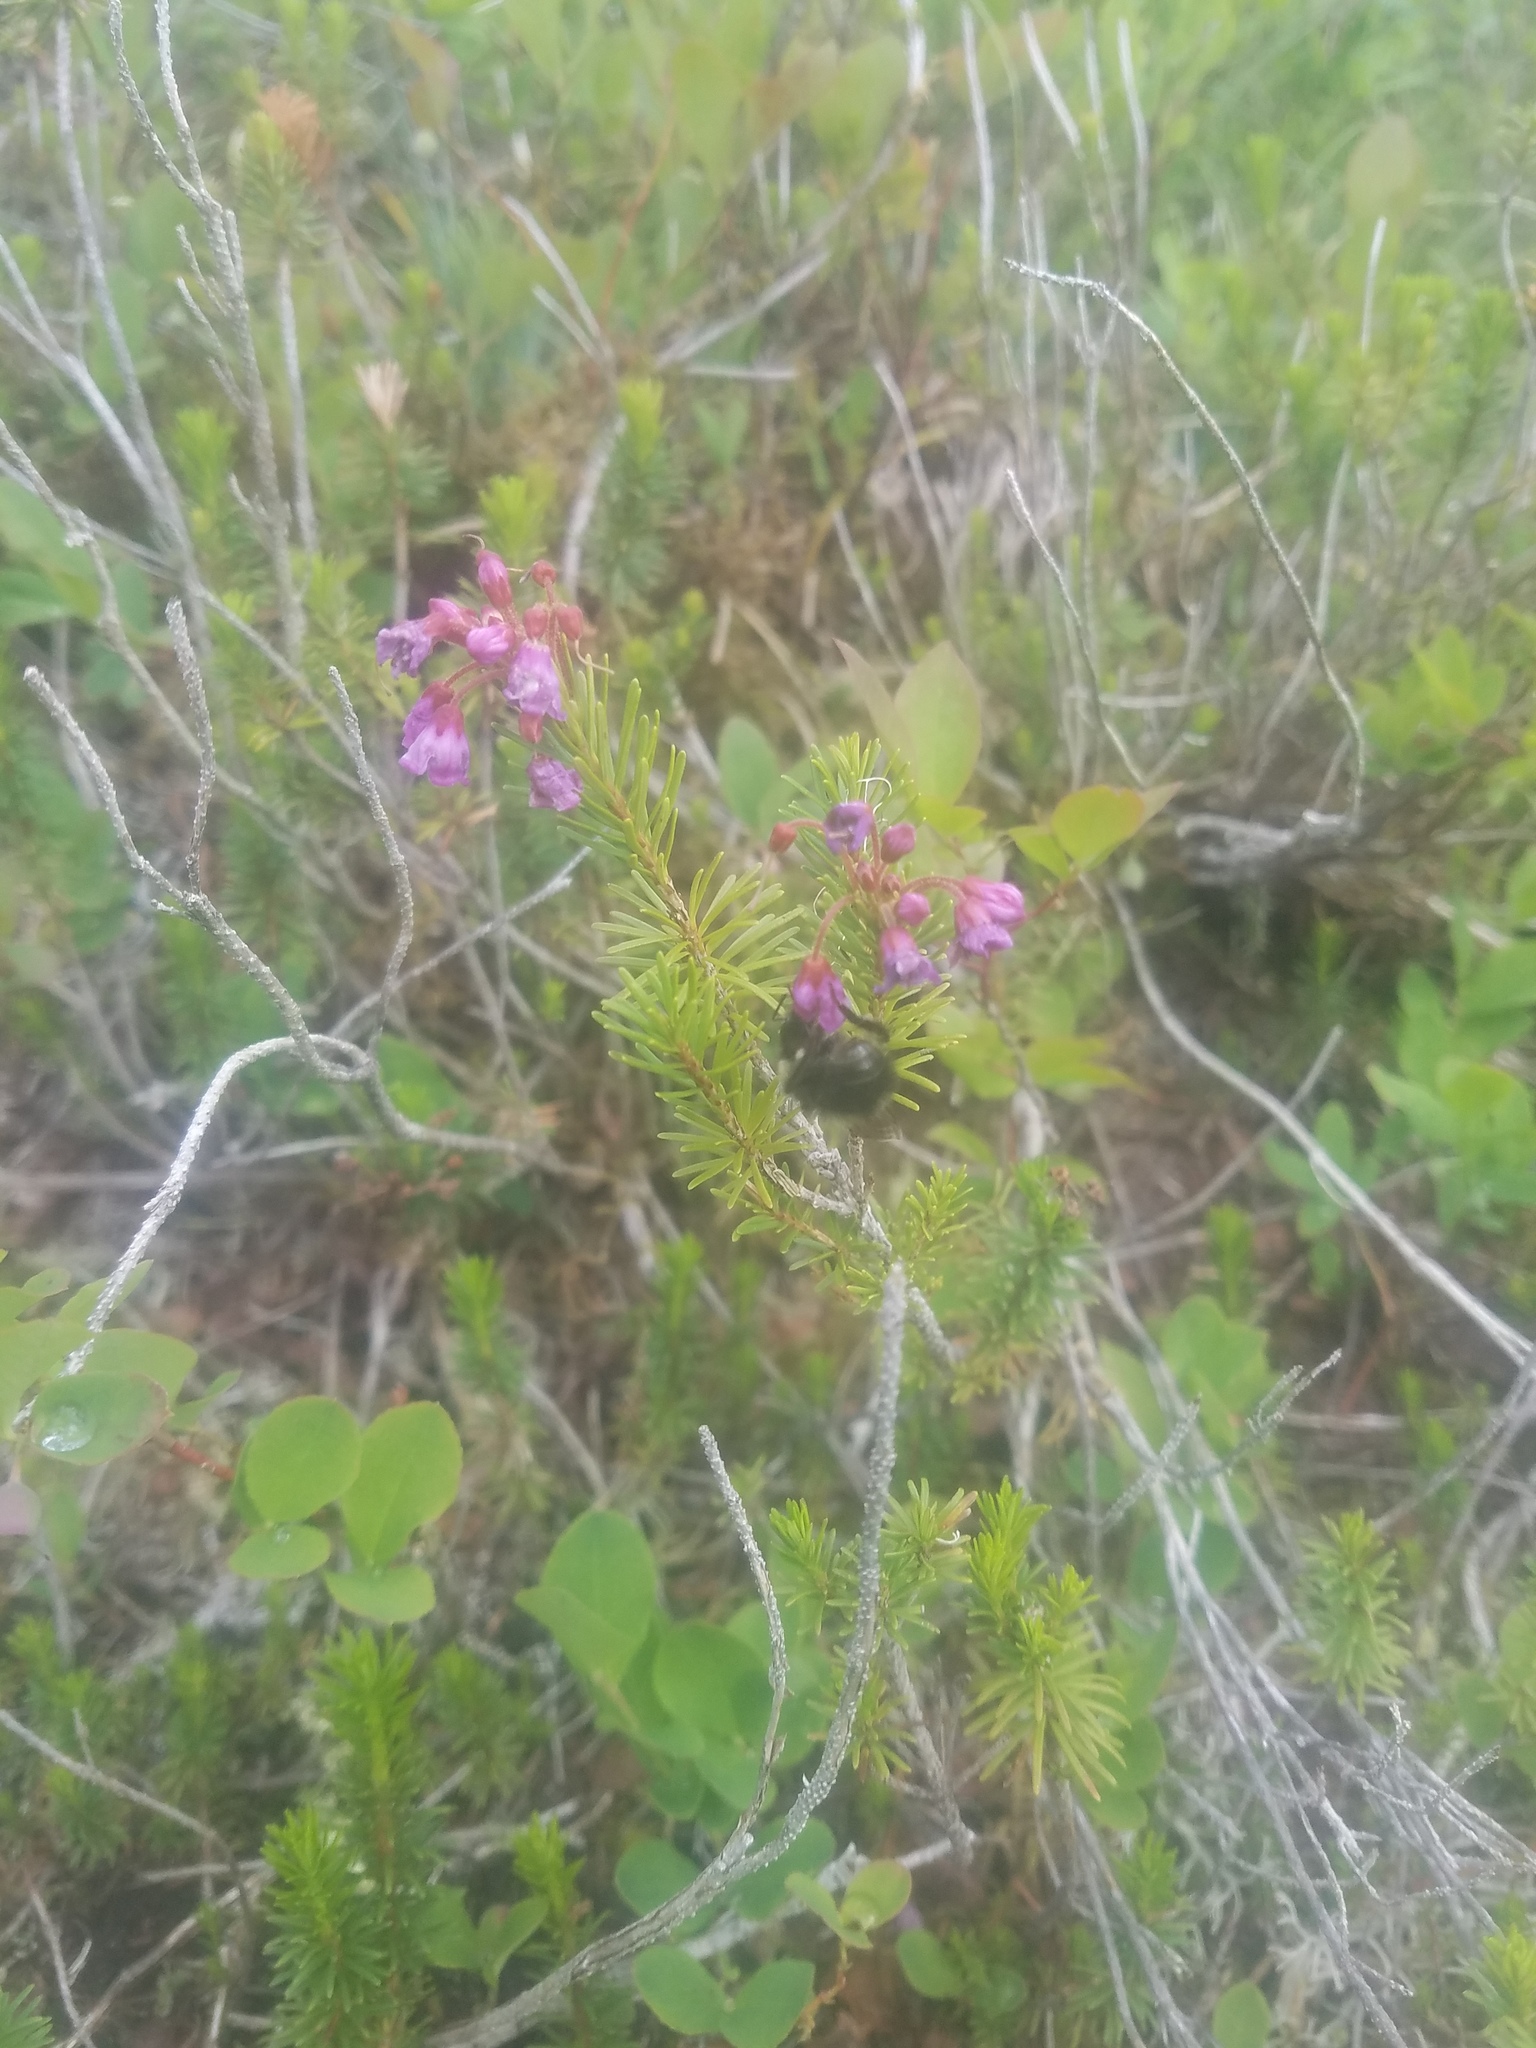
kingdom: Plantae
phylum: Tracheophyta
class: Magnoliopsida
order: Ericales
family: Ericaceae
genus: Phyllodoce
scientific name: Phyllodoce empetriformis
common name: Pink mountain heather
